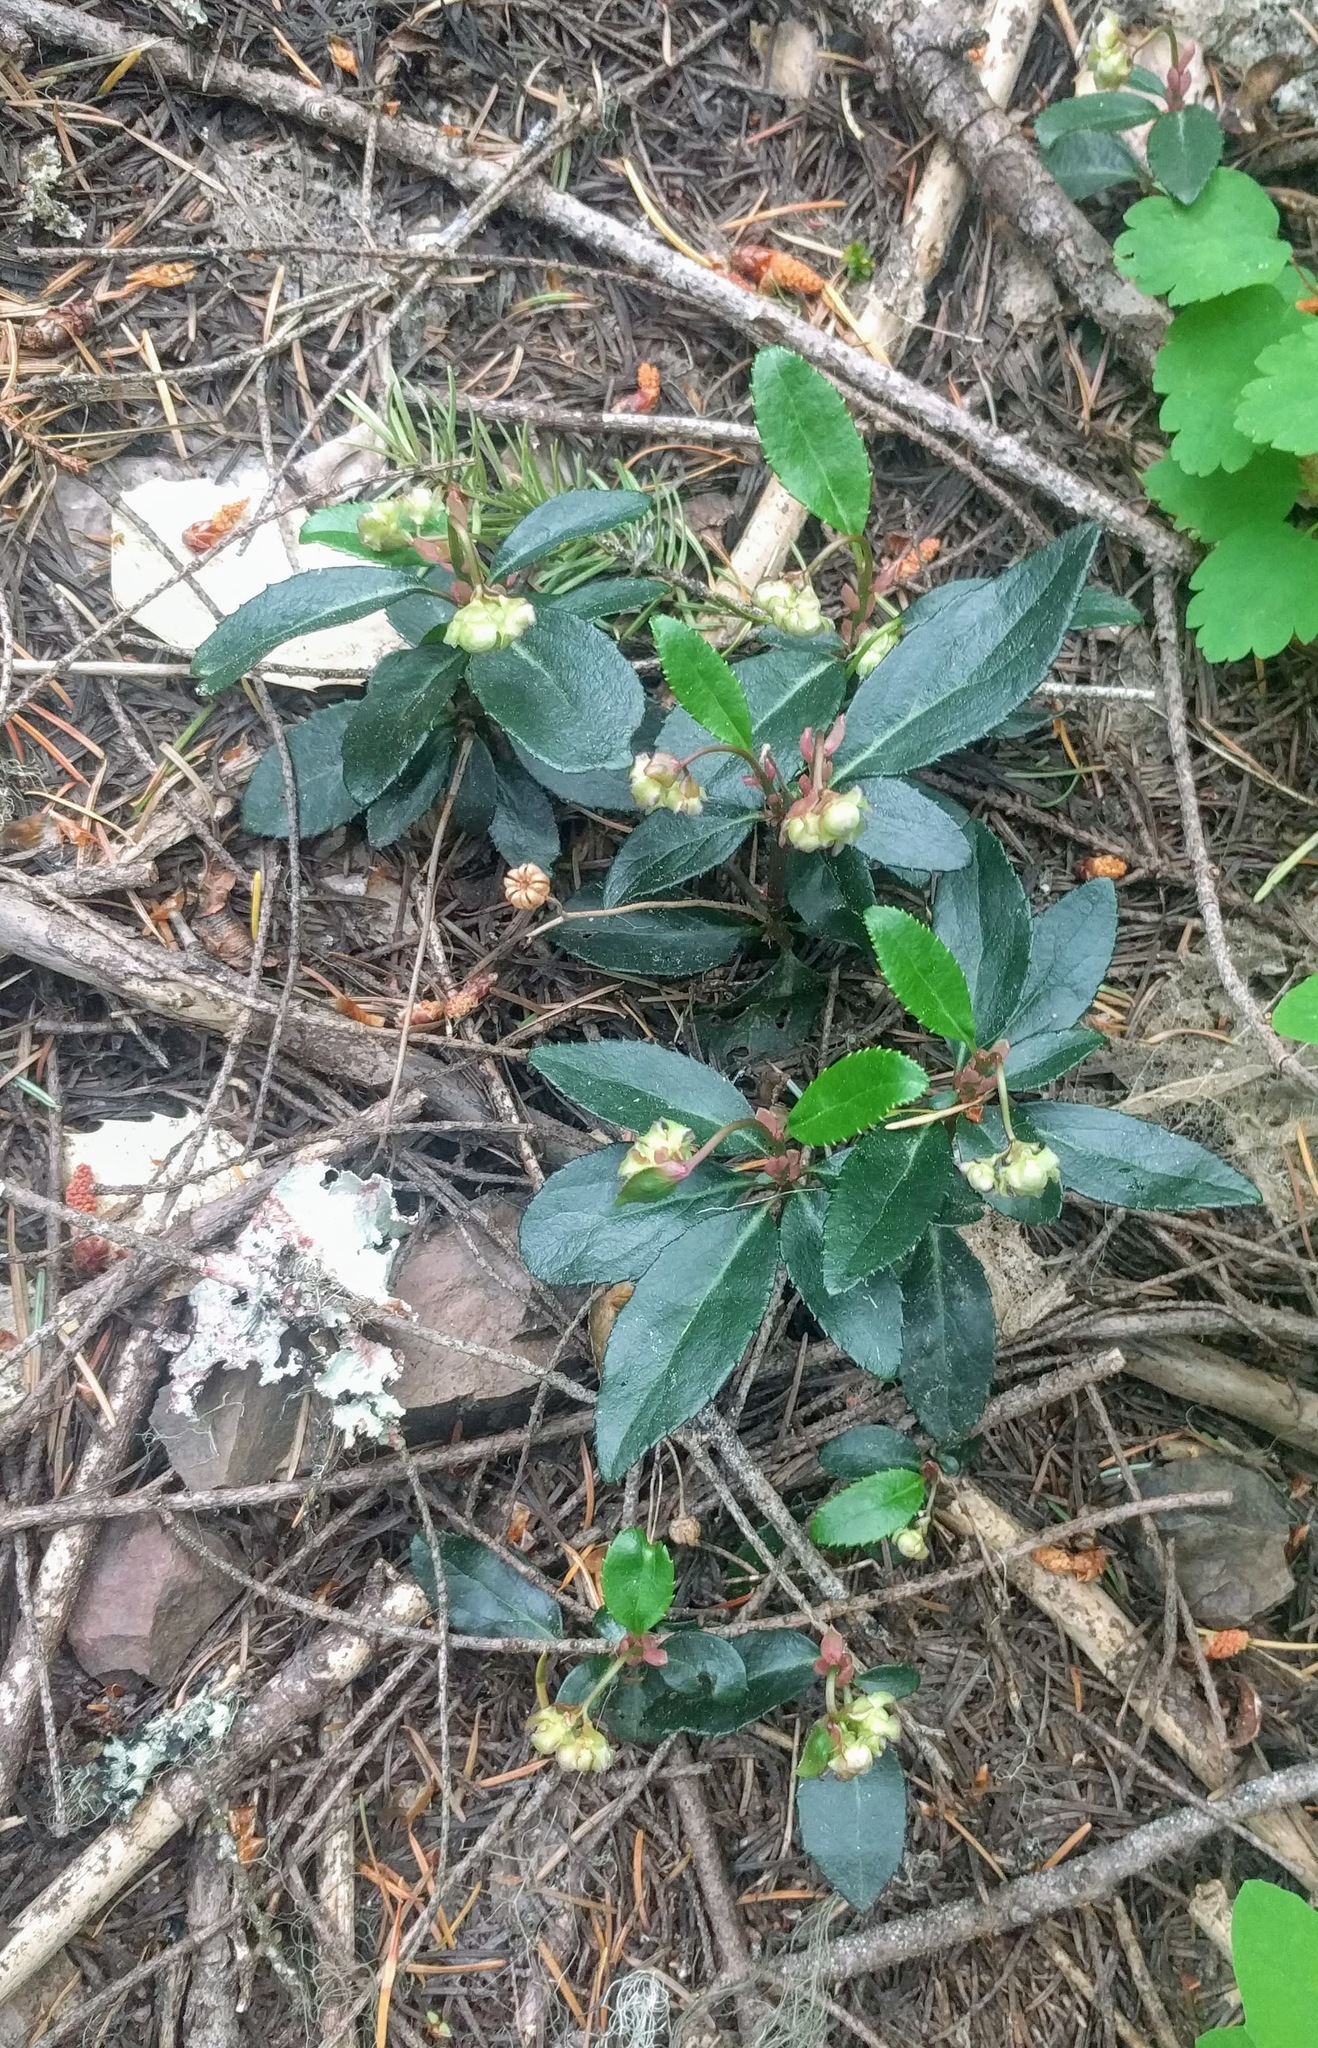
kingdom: Plantae
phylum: Tracheophyta
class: Magnoliopsida
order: Ericales
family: Ericaceae
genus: Chimaphila
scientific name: Chimaphila menziesii
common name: Menzies' pipsissewa
